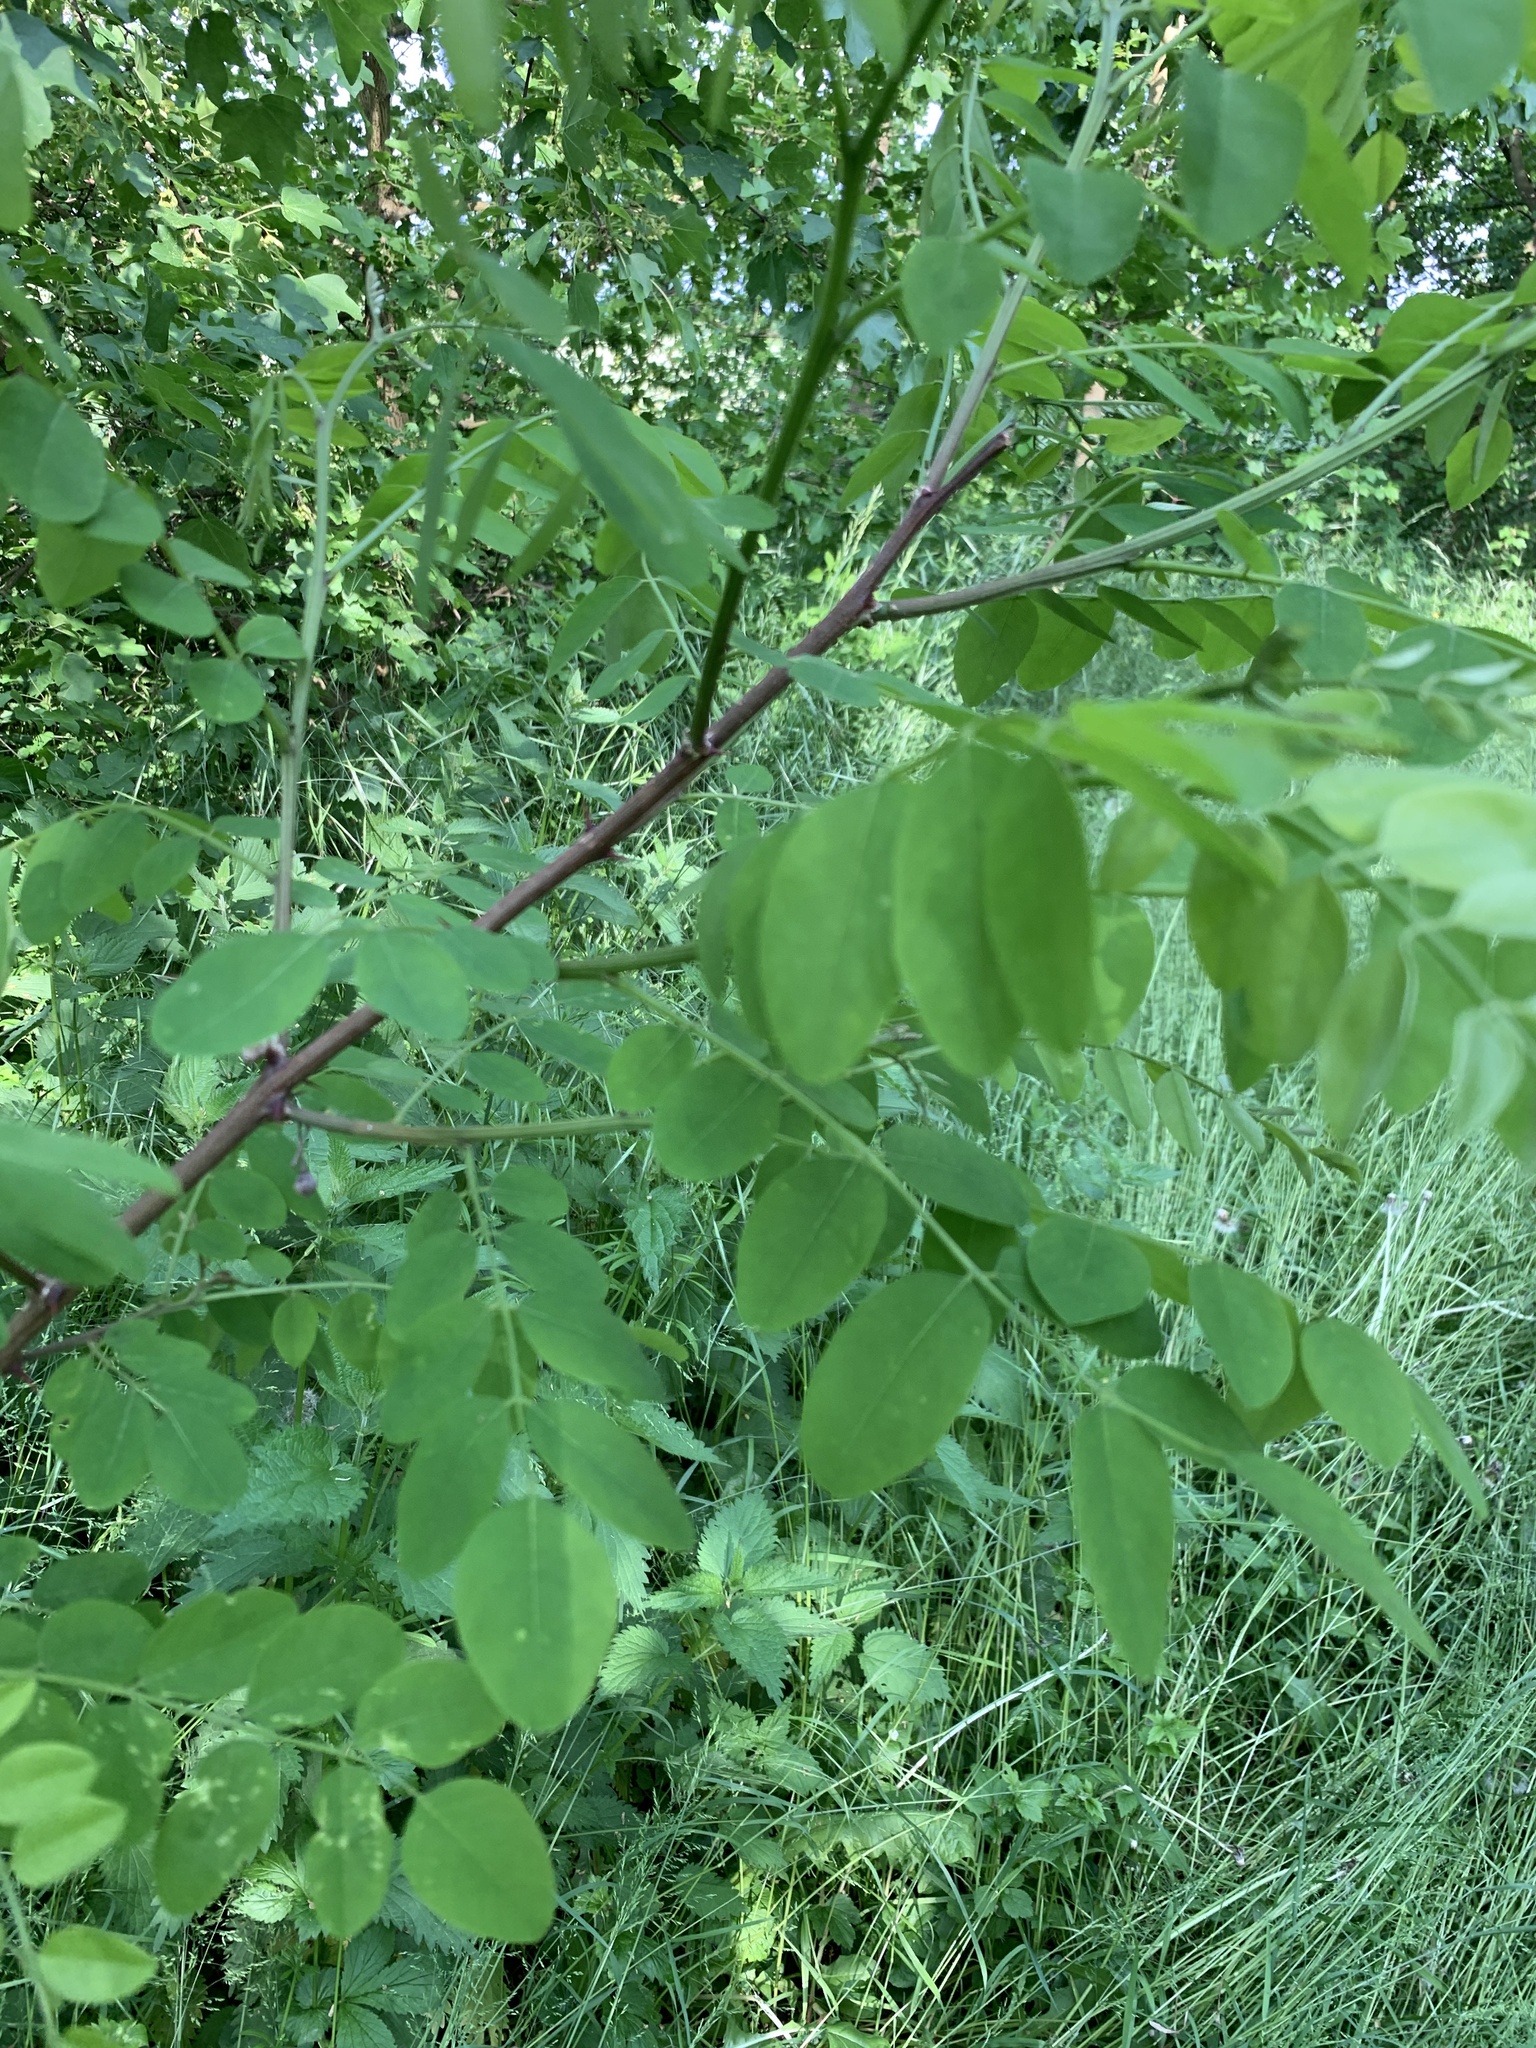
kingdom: Plantae
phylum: Tracheophyta
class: Magnoliopsida
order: Fabales
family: Fabaceae
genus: Robinia
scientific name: Robinia pseudoacacia
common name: Black locust
